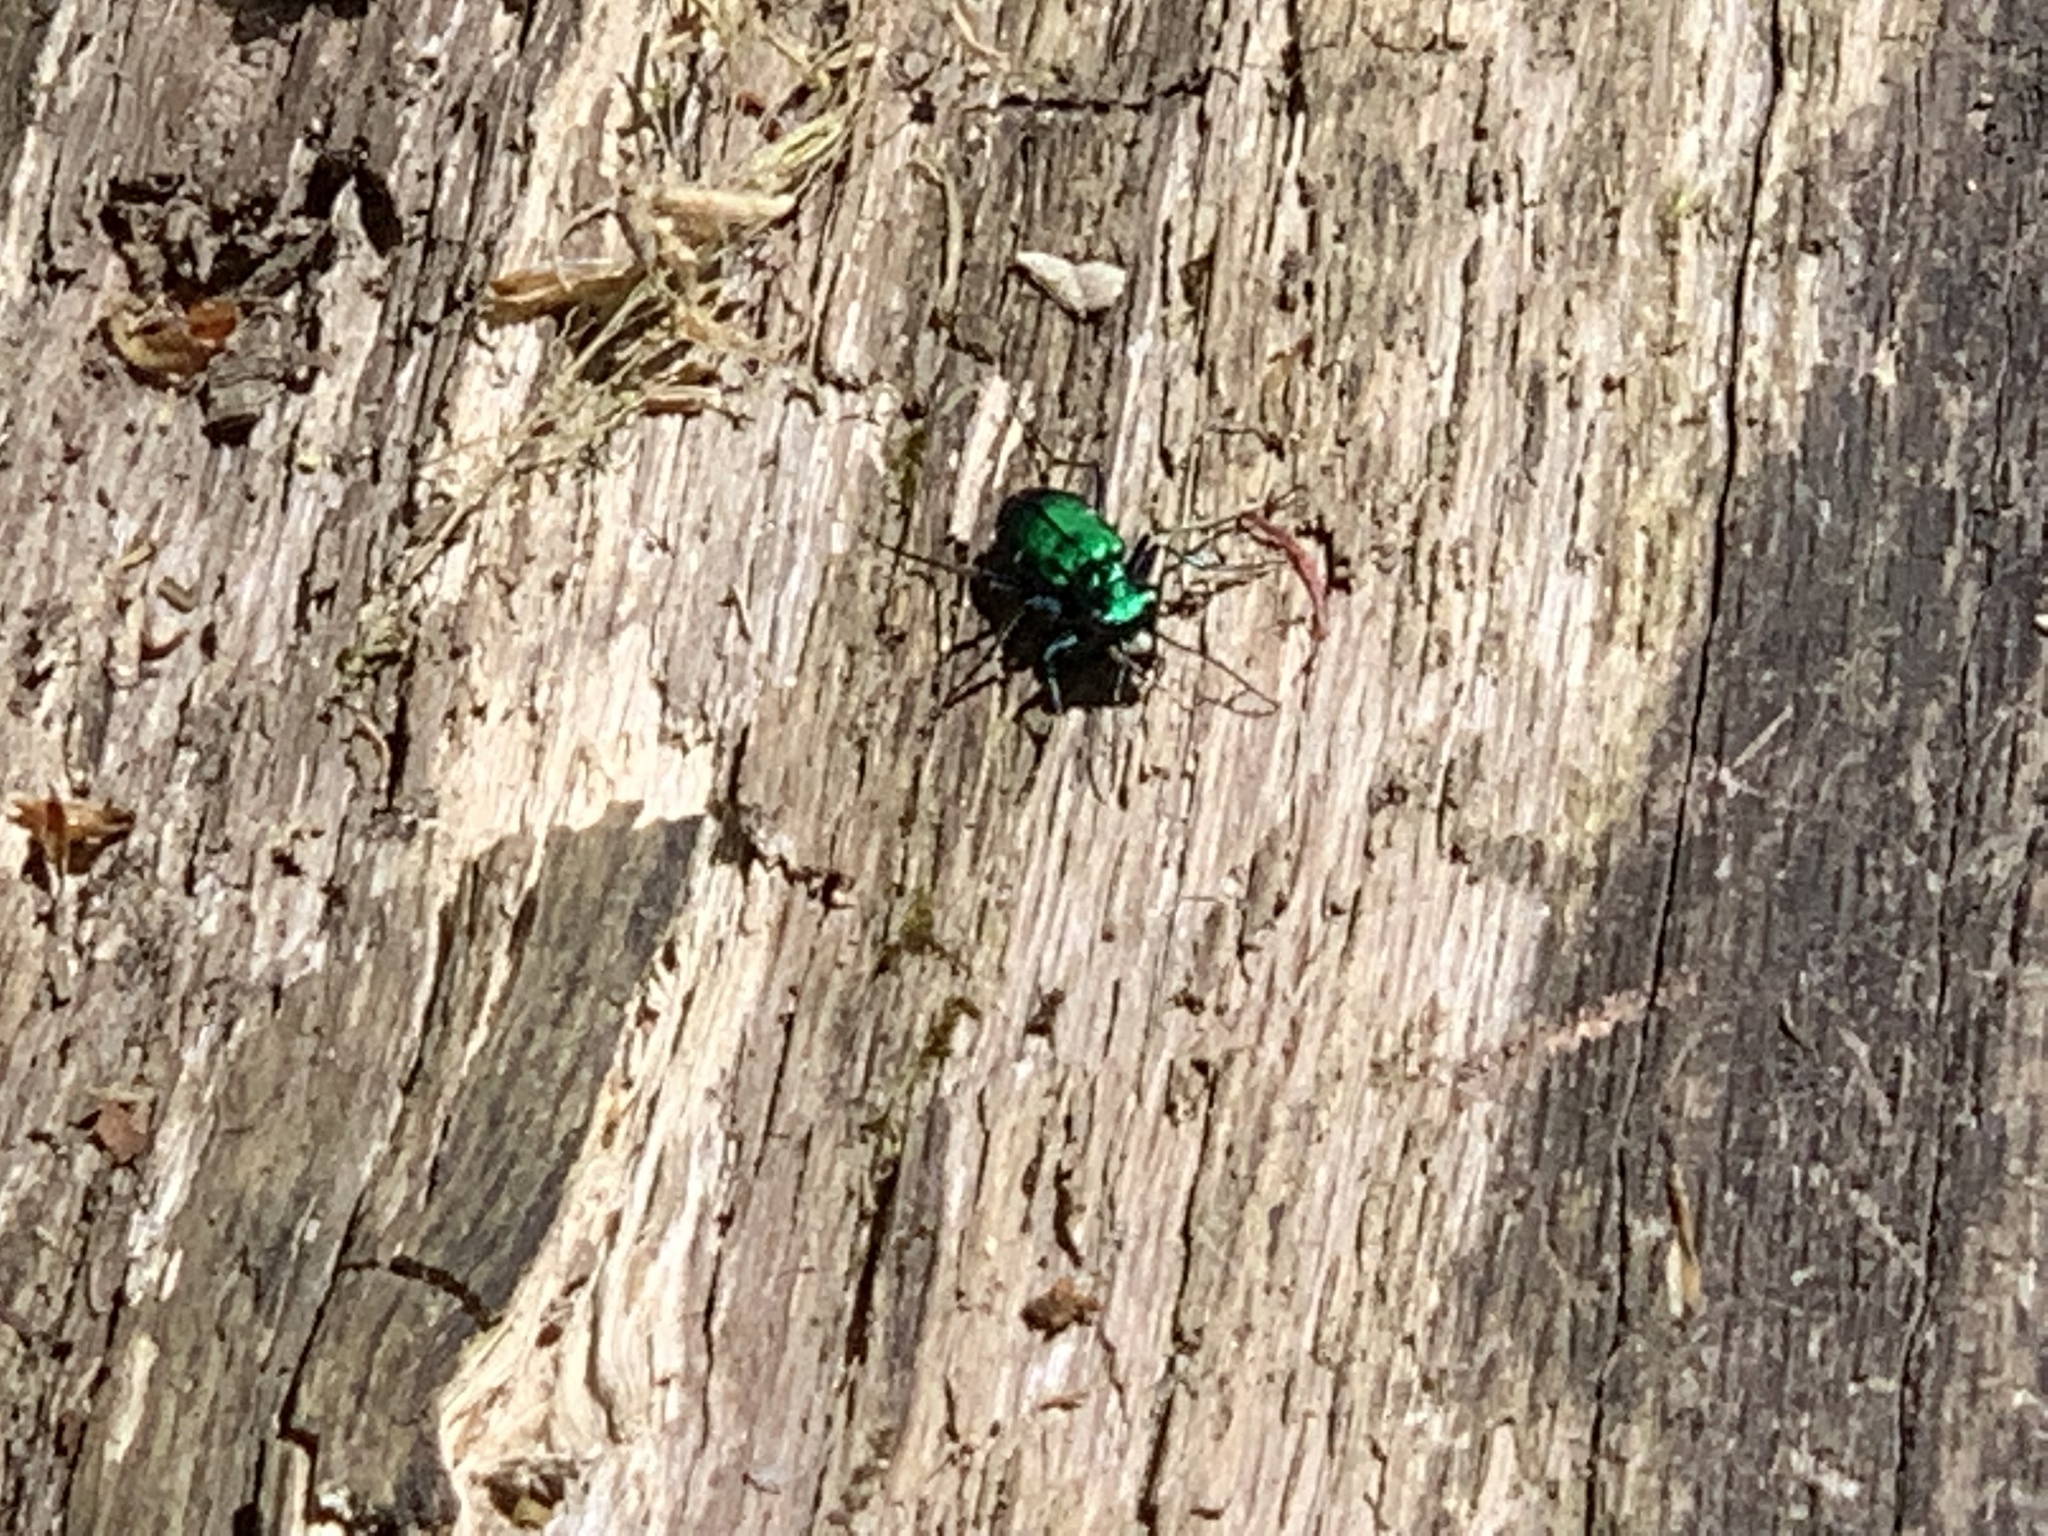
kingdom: Animalia
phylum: Arthropoda
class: Insecta
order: Coleoptera
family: Carabidae
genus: Cicindela
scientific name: Cicindela sexguttata
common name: Six-spotted tiger beetle
